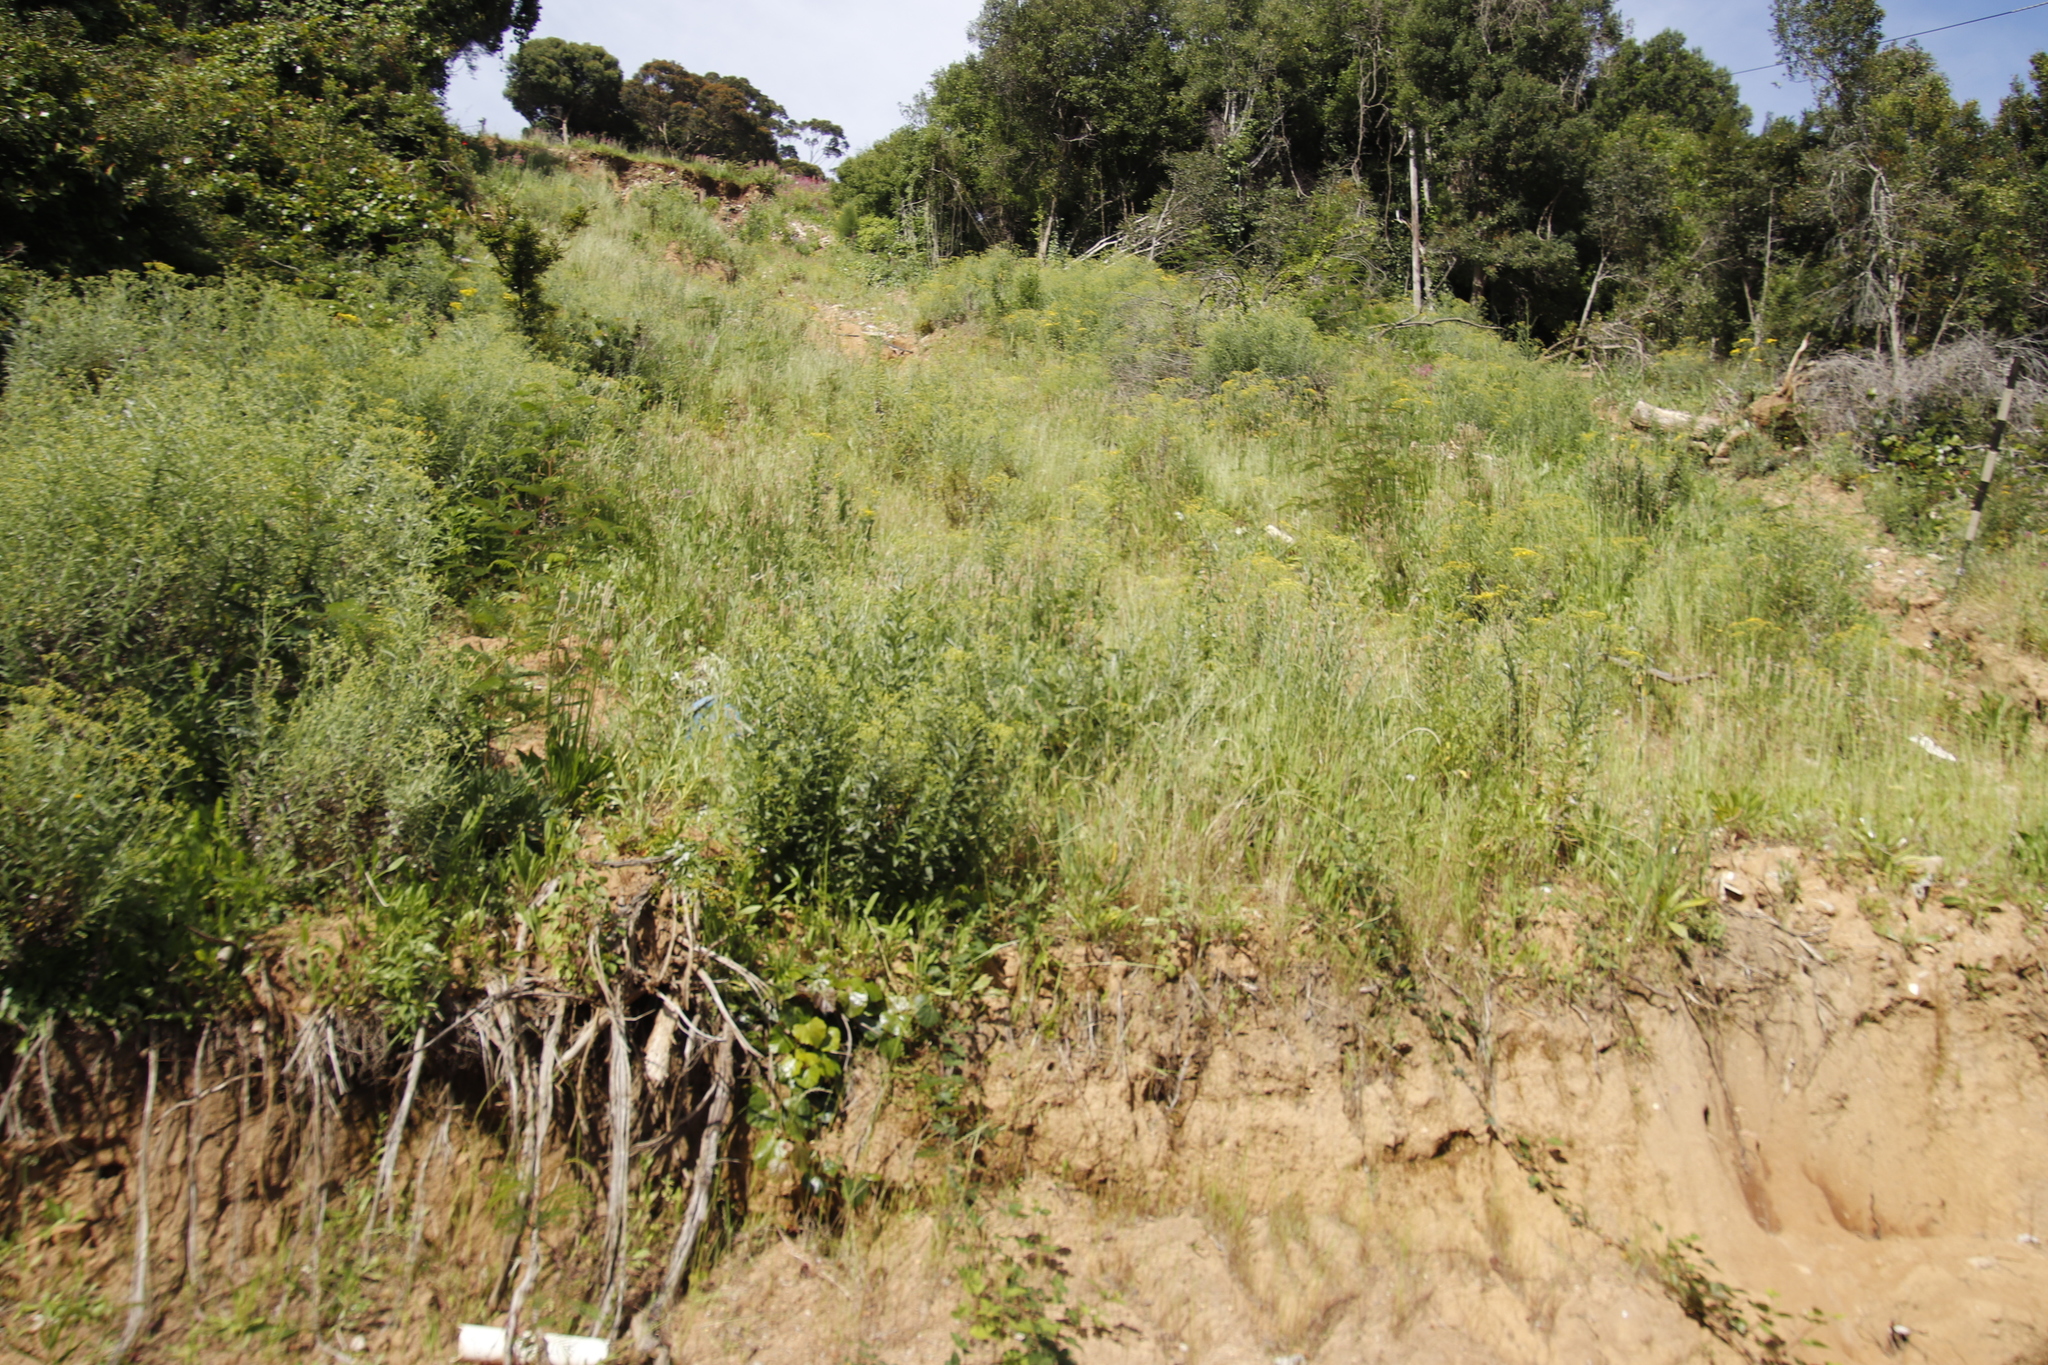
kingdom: Plantae
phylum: Tracheophyta
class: Magnoliopsida
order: Asterales
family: Asteraceae
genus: Senecio
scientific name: Senecio pterophorus
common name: Shoddy ragwort
